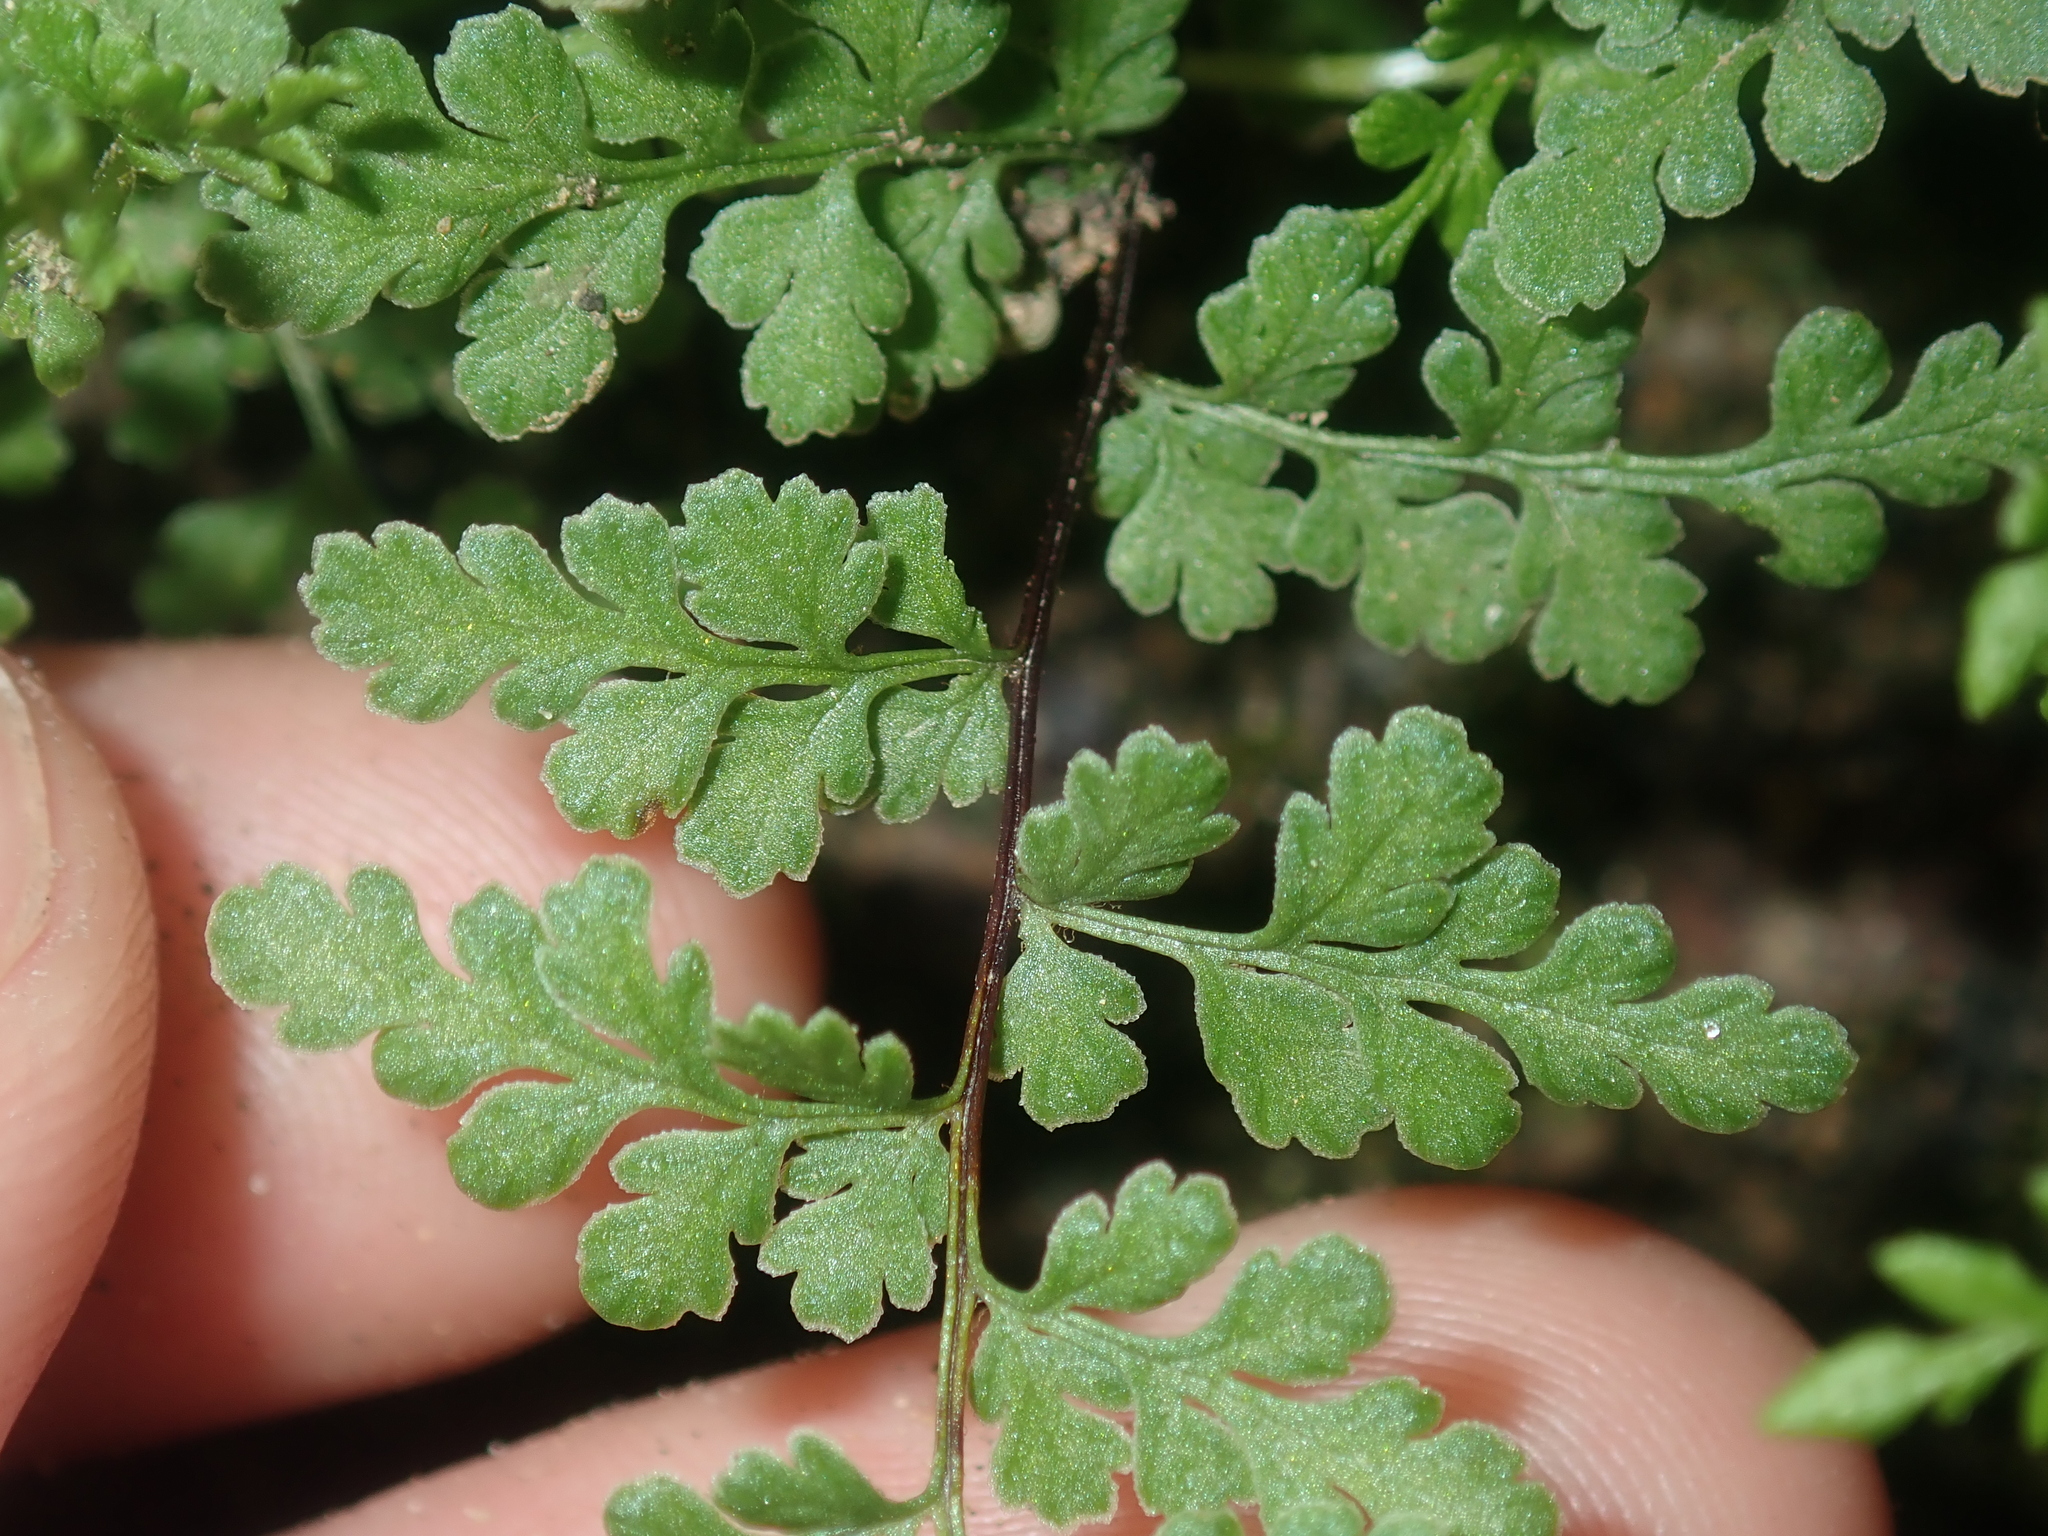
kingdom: Plantae
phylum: Tracheophyta
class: Polypodiopsida
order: Polypodiales
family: Pteridaceae
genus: Cheilanthes
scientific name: Cheilanthes austrotenuifolia
